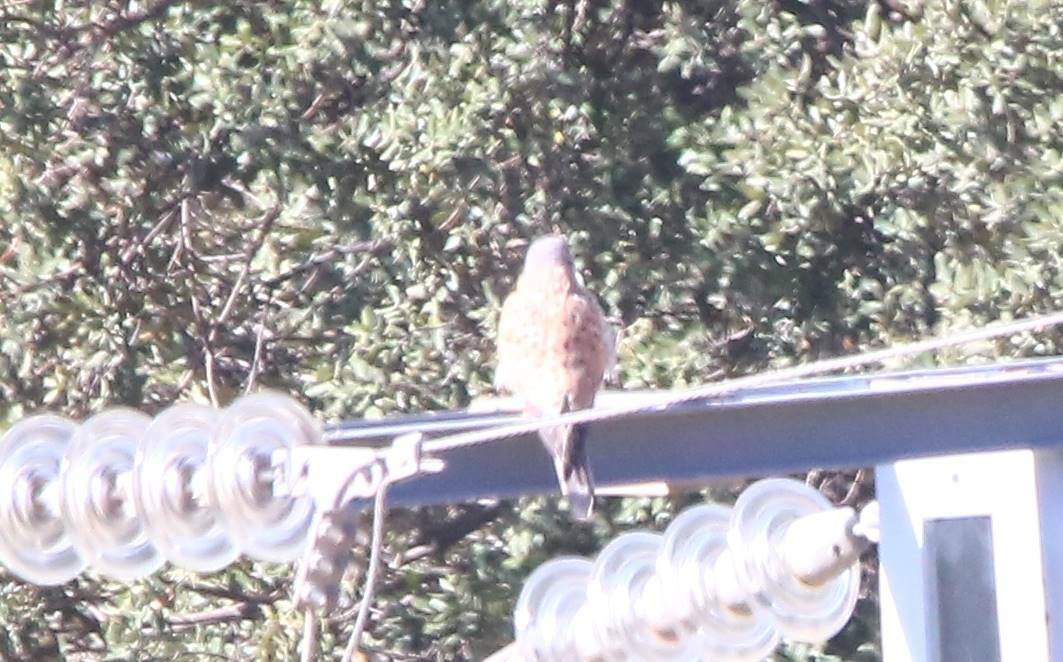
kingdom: Animalia
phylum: Chordata
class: Aves
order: Falconiformes
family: Falconidae
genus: Falco
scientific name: Falco tinnunculus
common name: Common kestrel
